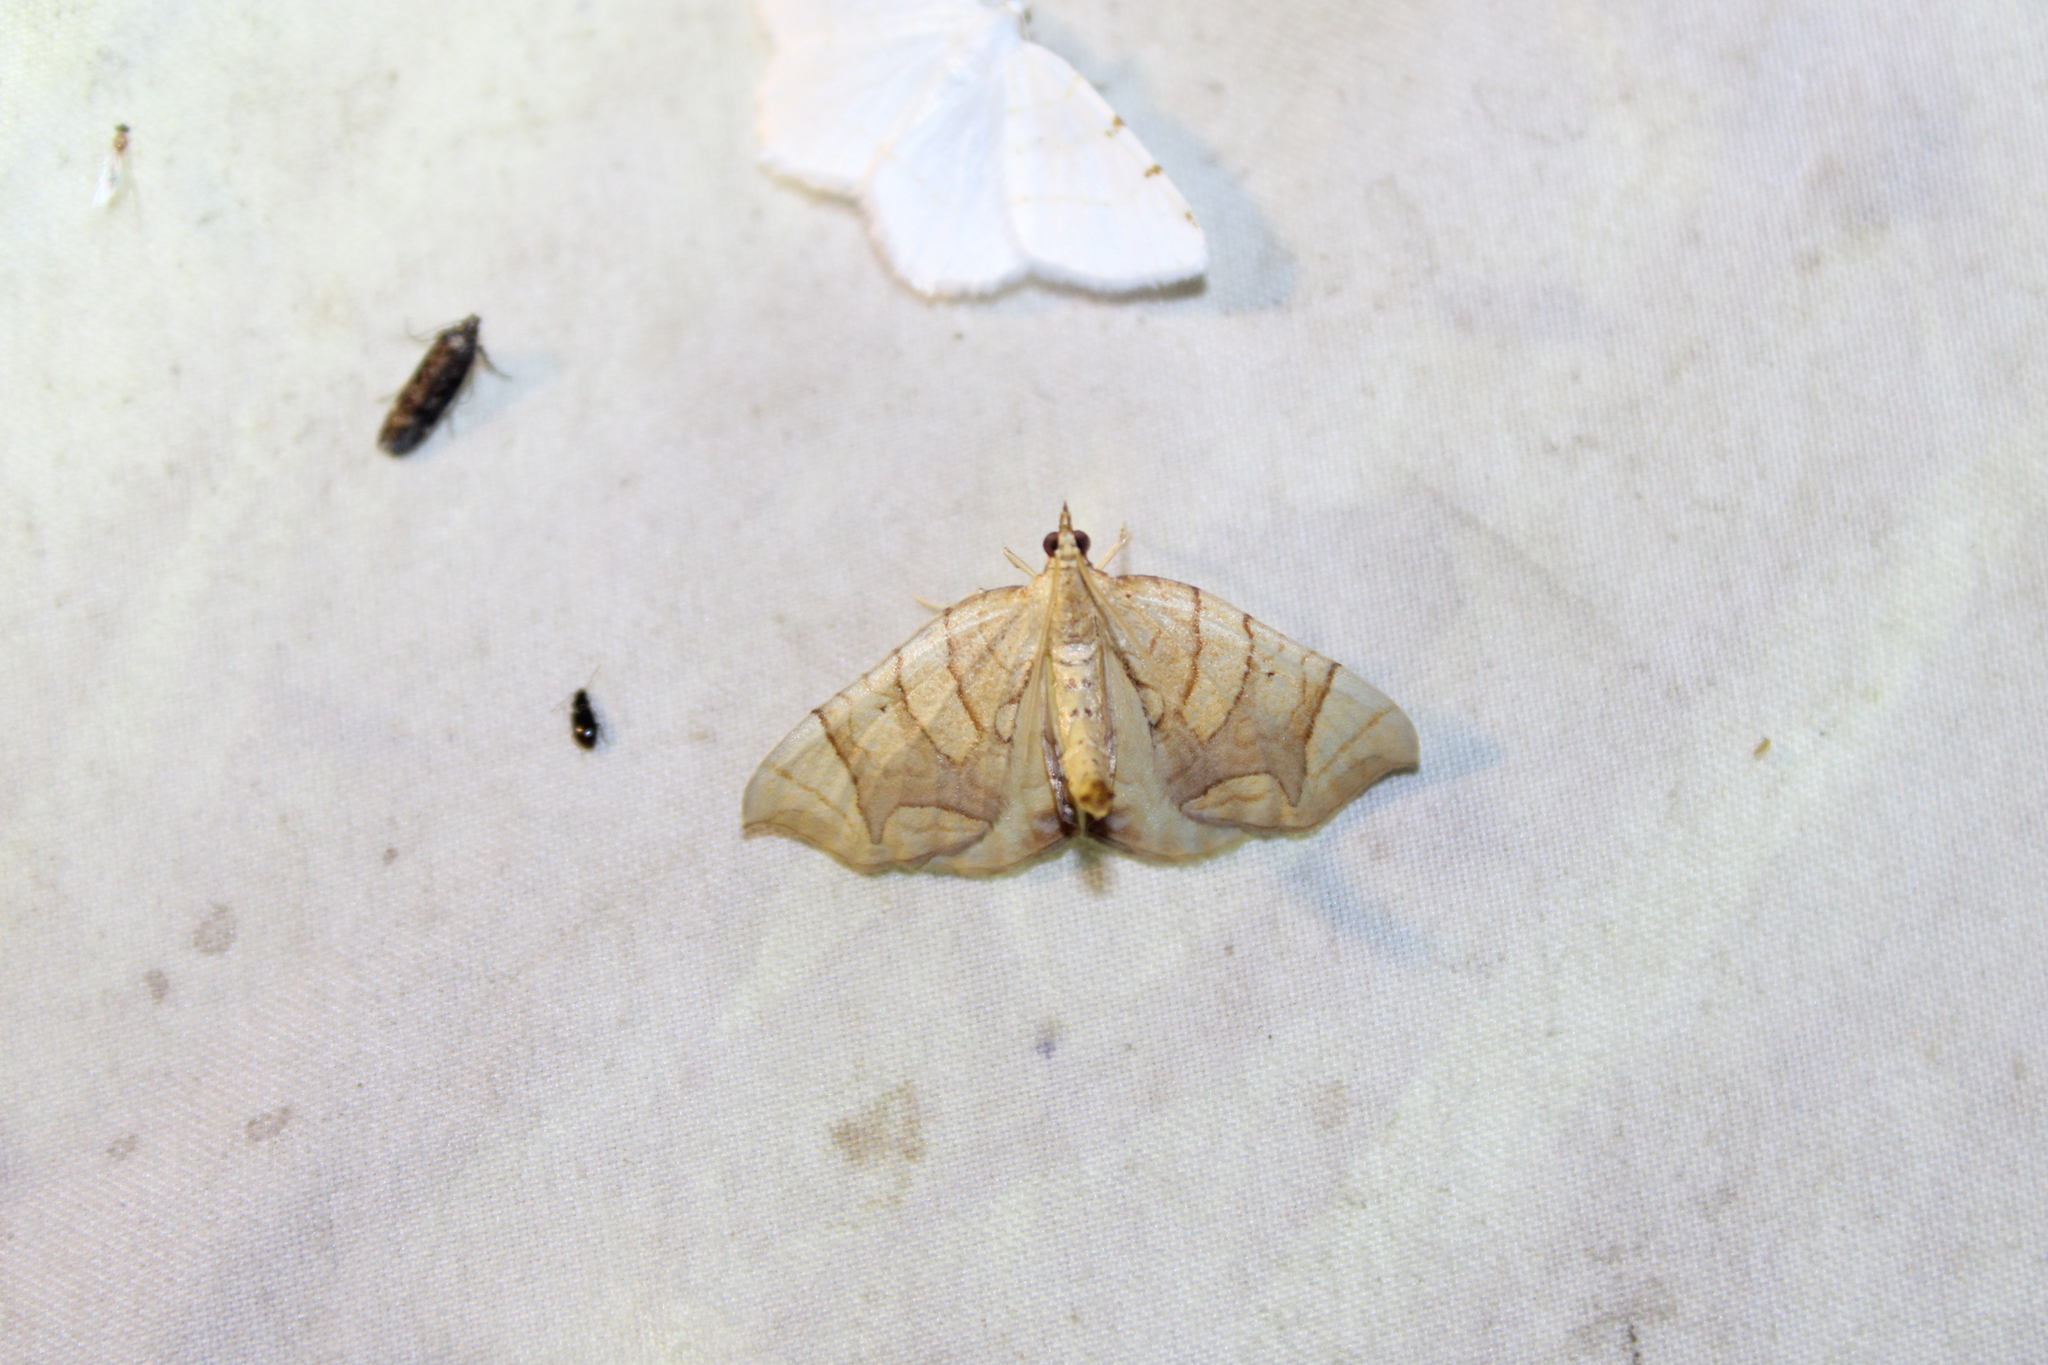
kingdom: Animalia
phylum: Arthropoda
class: Insecta
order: Lepidoptera
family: Geometridae
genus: Eulithis
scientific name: Eulithis
